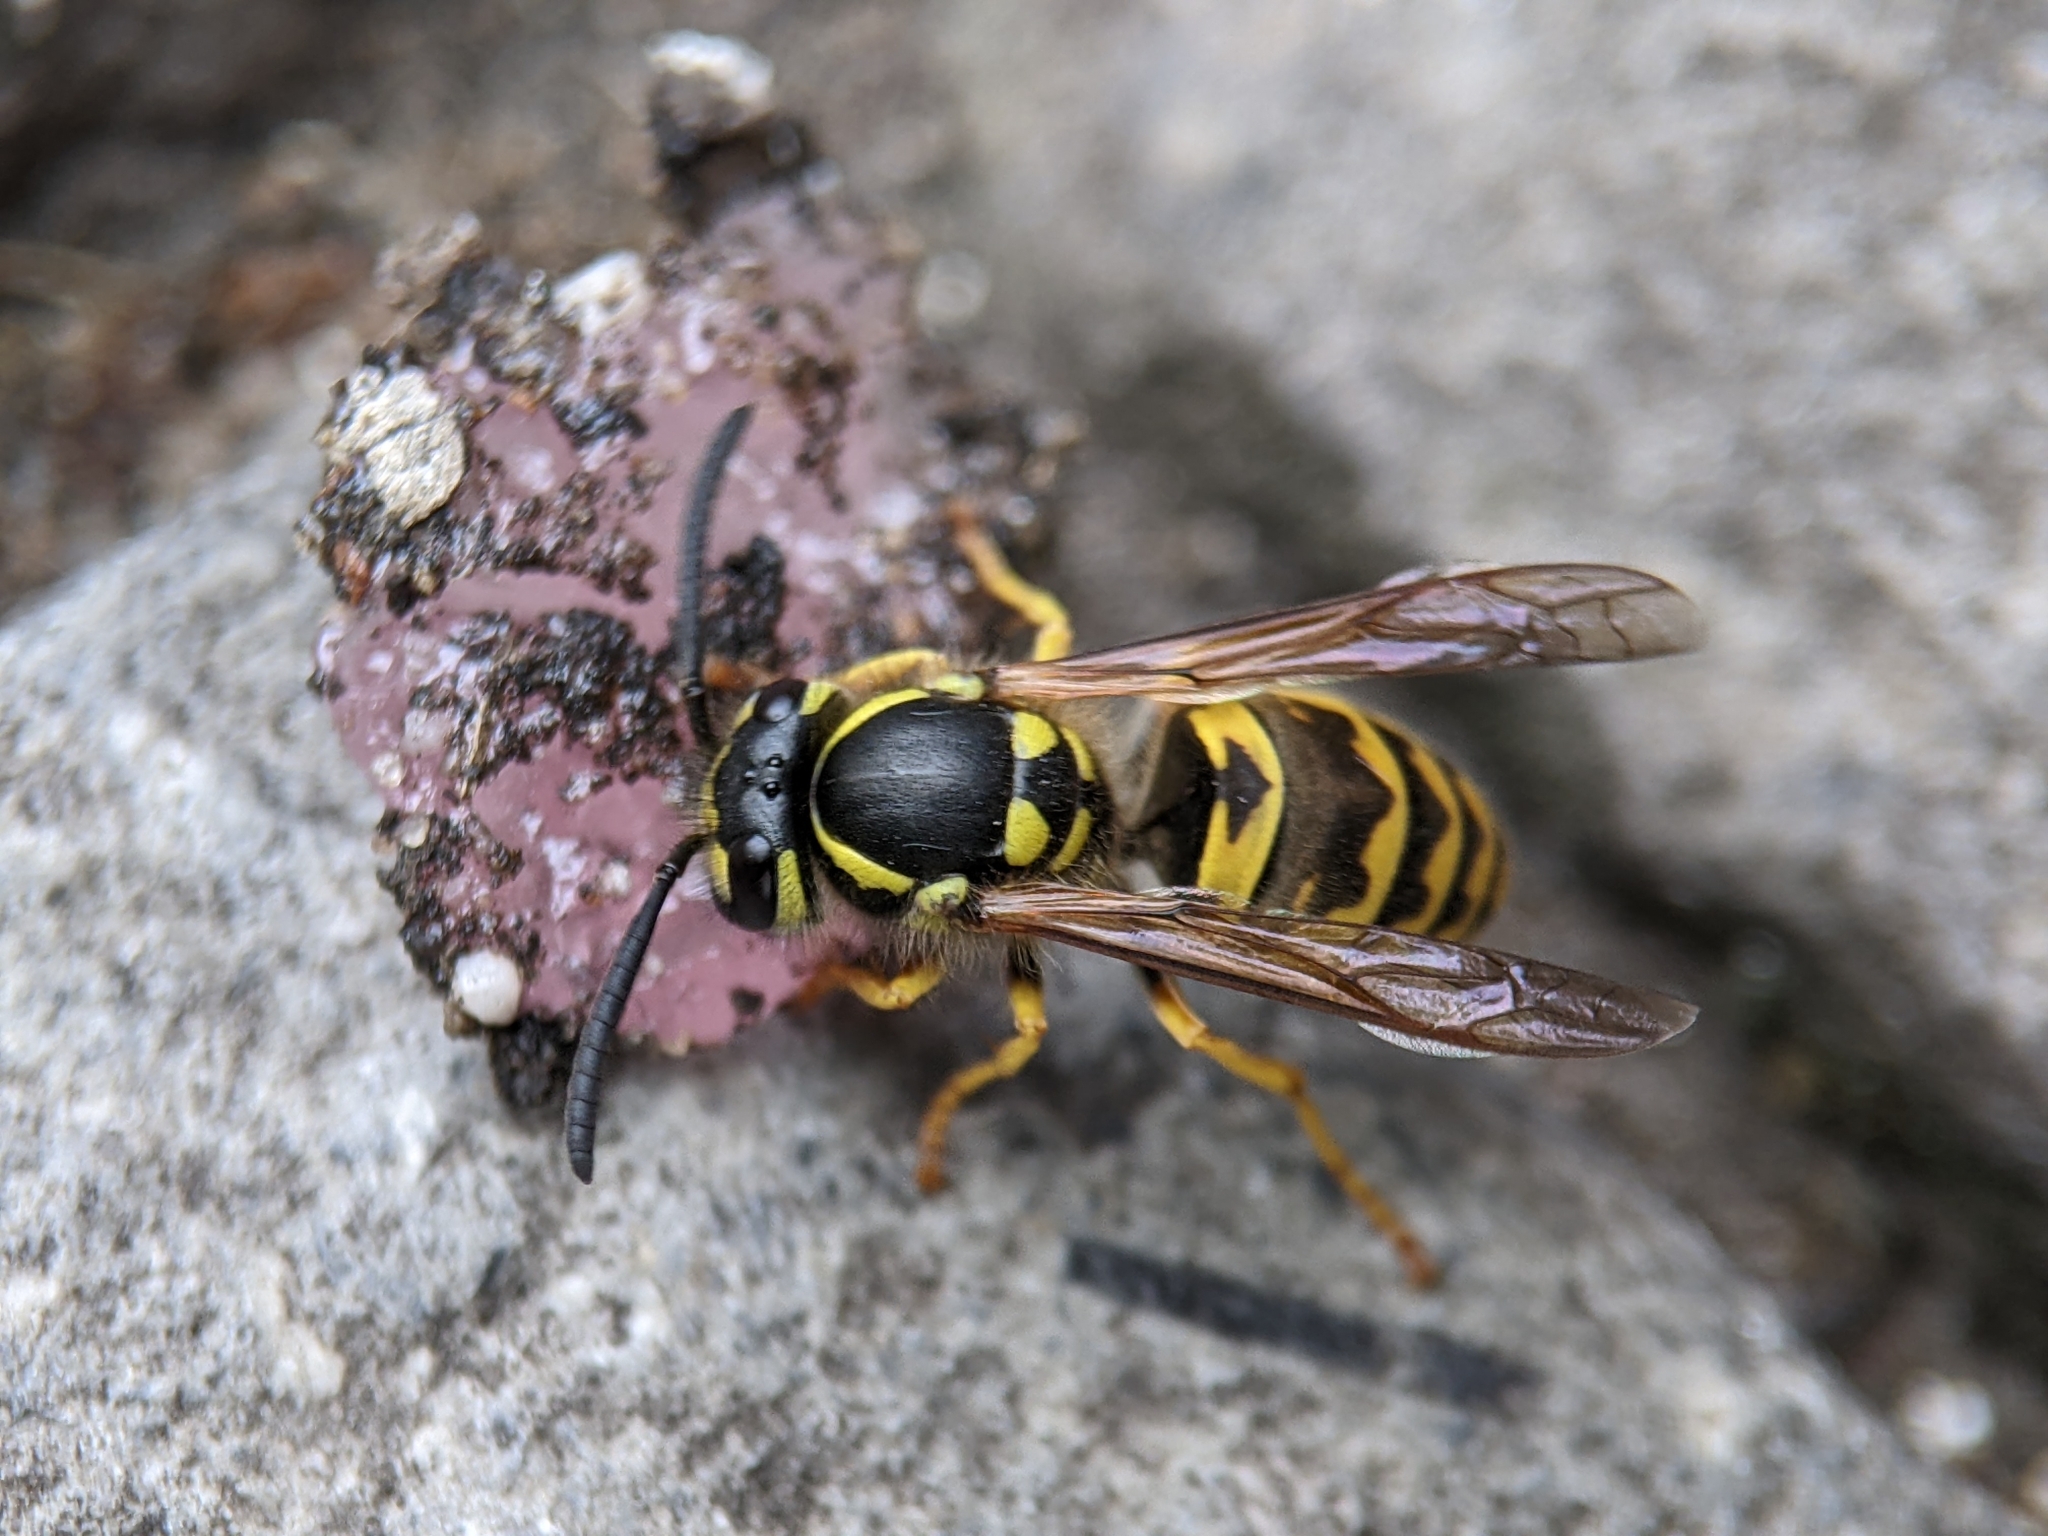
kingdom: Animalia
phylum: Arthropoda
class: Insecta
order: Hymenoptera
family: Vespidae
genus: Vespula
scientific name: Vespula germanica
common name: German wasp
